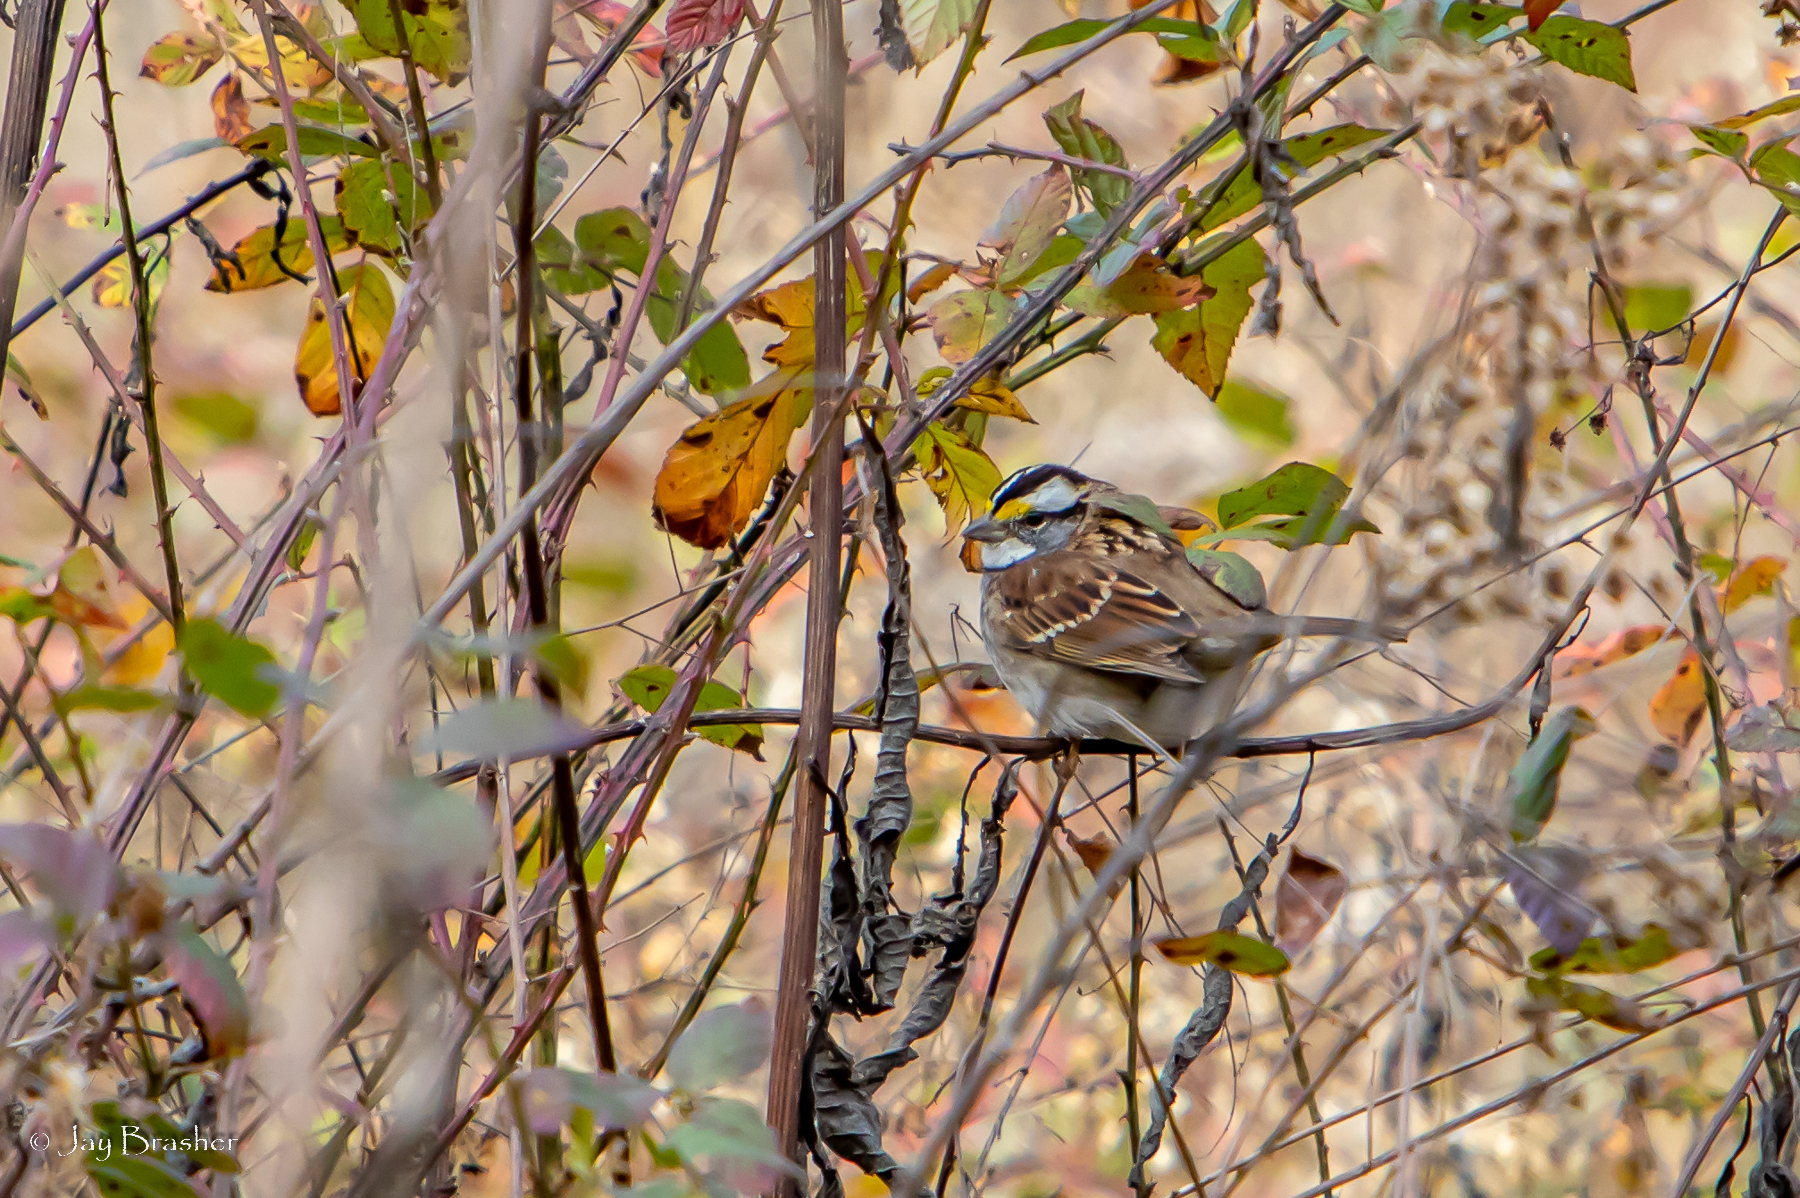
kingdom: Animalia
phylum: Chordata
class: Aves
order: Passeriformes
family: Passerellidae
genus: Zonotrichia
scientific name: Zonotrichia albicollis
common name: White-throated sparrow
